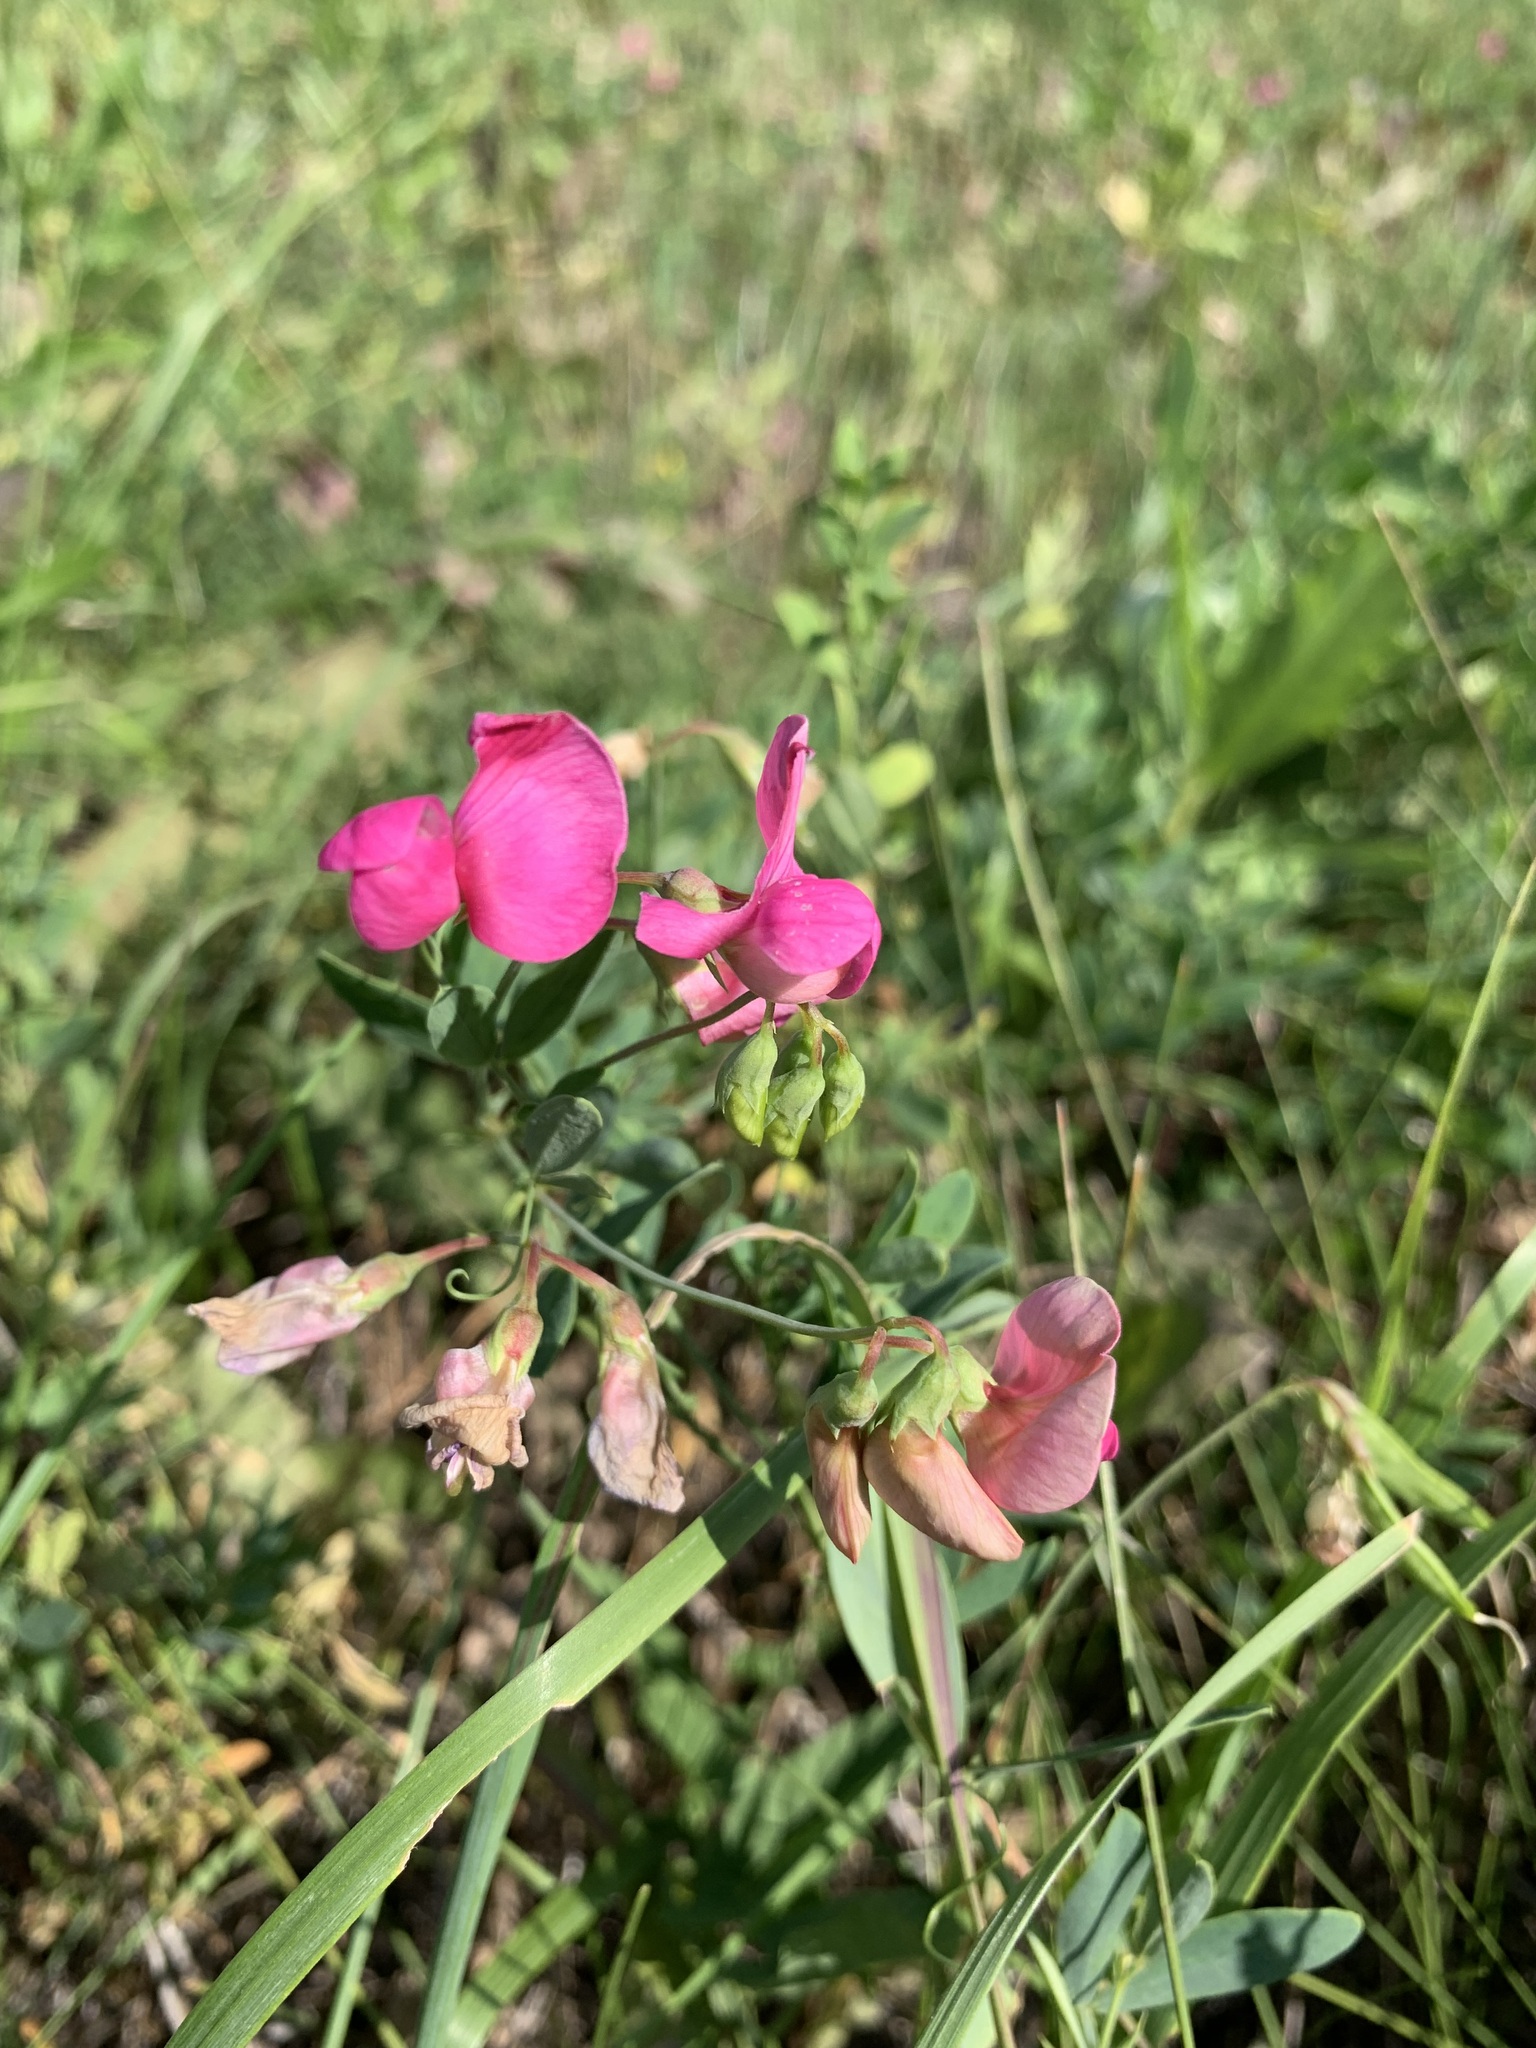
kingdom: Plantae
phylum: Tracheophyta
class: Magnoliopsida
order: Fabales
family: Fabaceae
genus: Lathyrus
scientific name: Lathyrus tuberosus
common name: Tuberous pea
